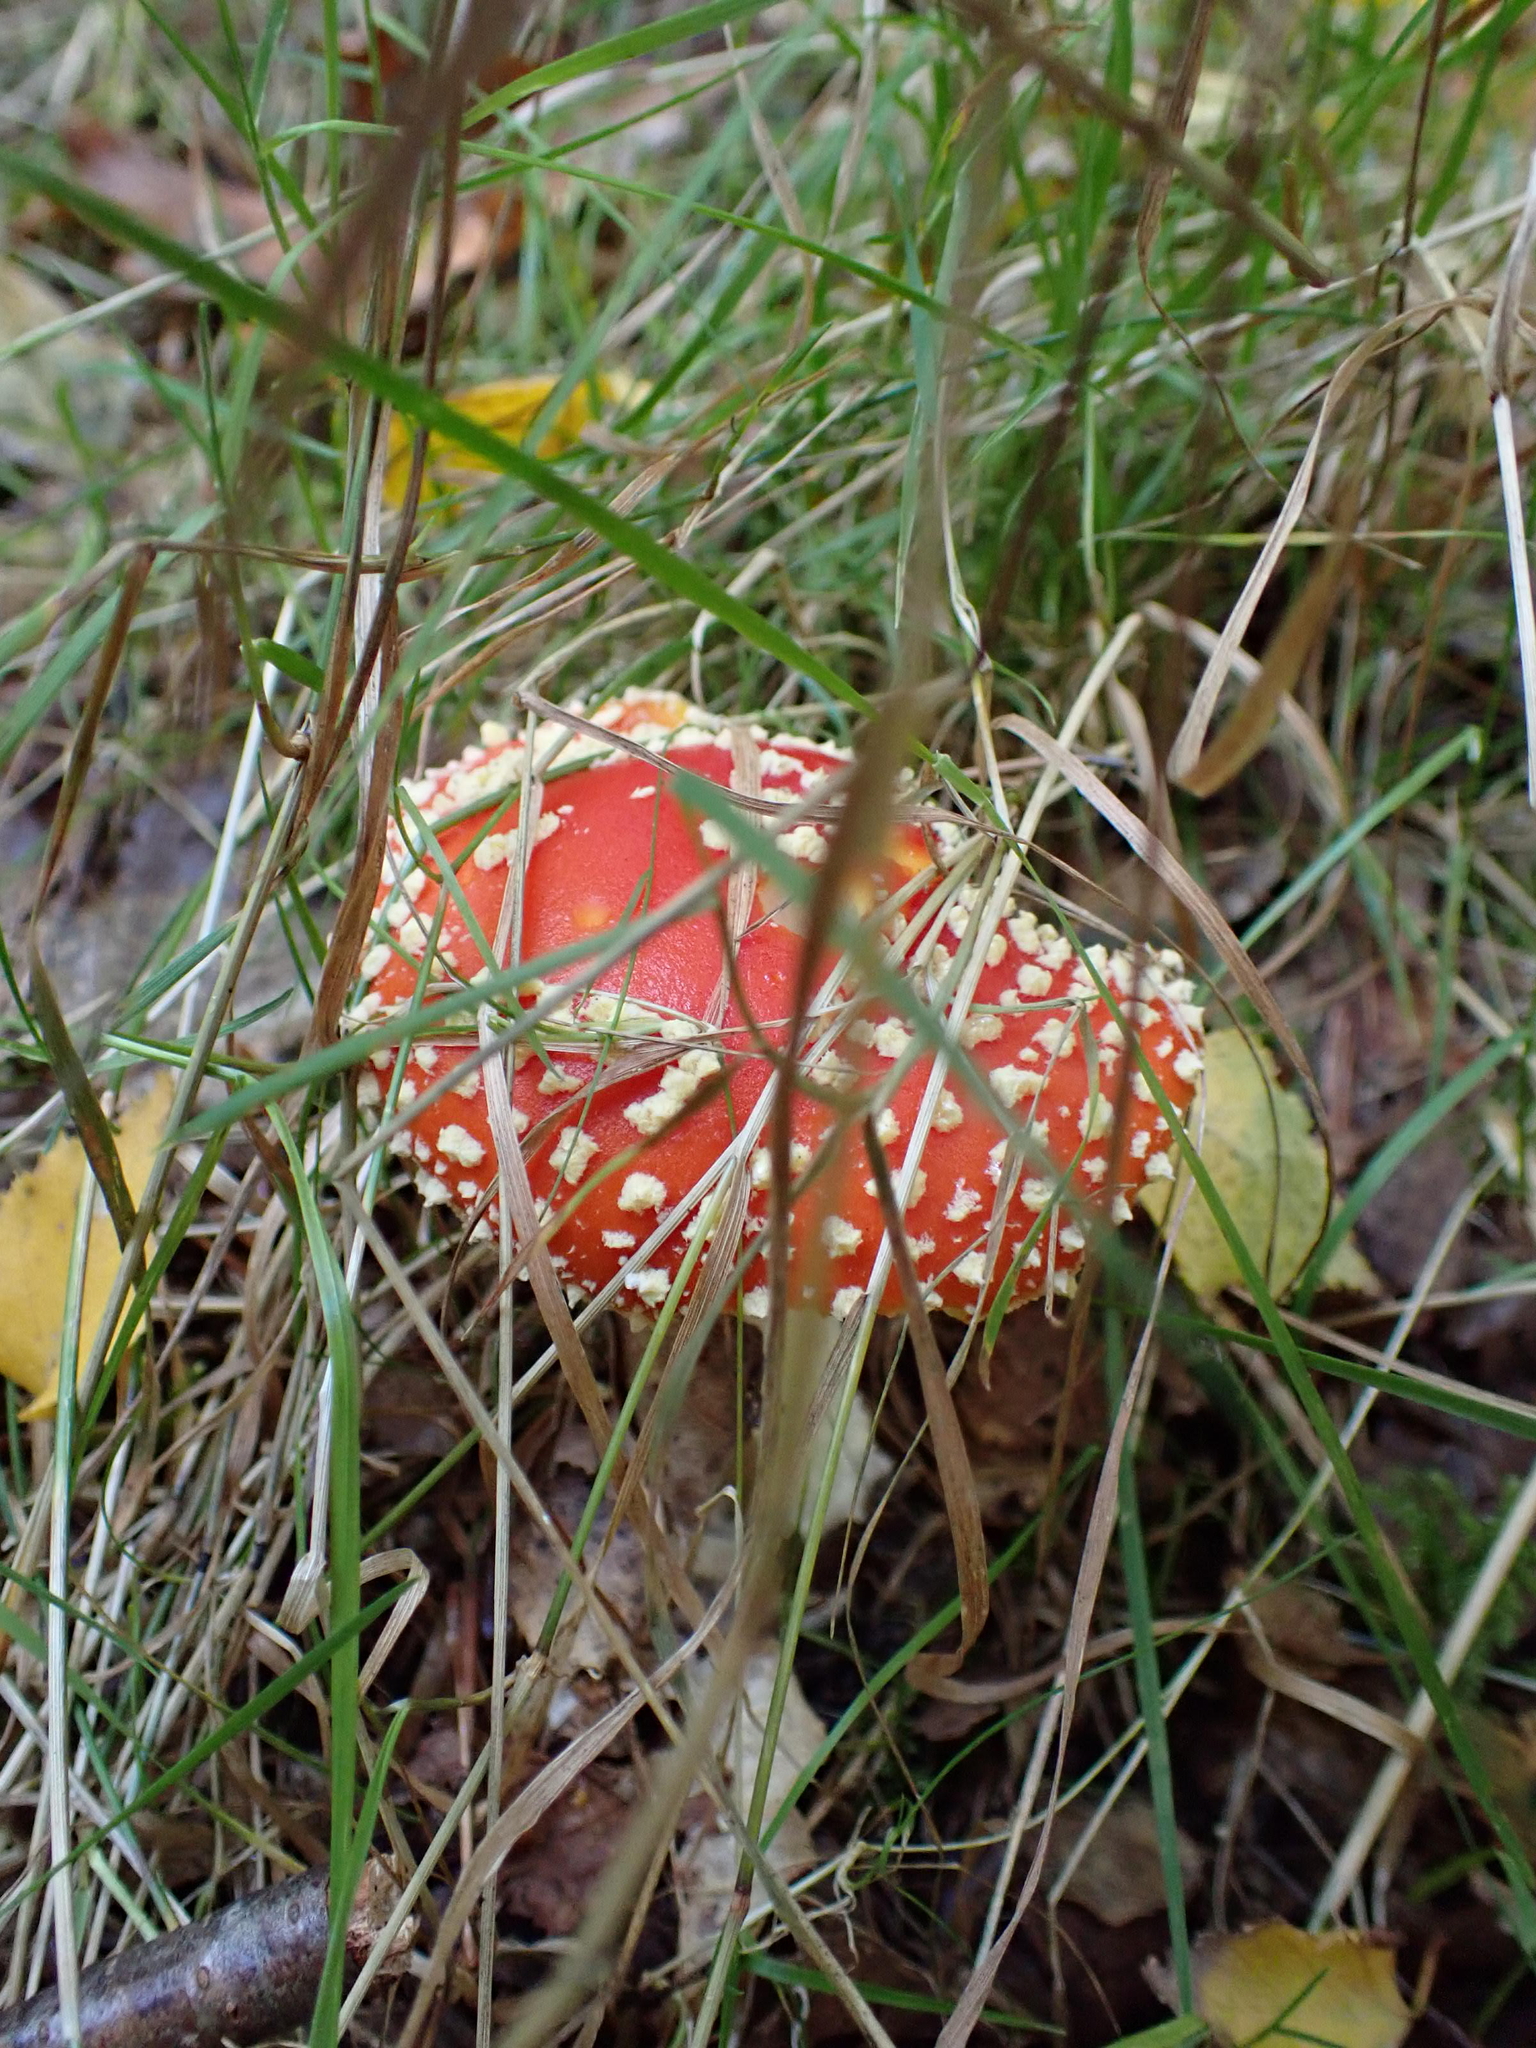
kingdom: Fungi
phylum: Basidiomycota
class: Agaricomycetes
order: Agaricales
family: Amanitaceae
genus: Amanita
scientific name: Amanita muscaria
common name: Fly agaric
